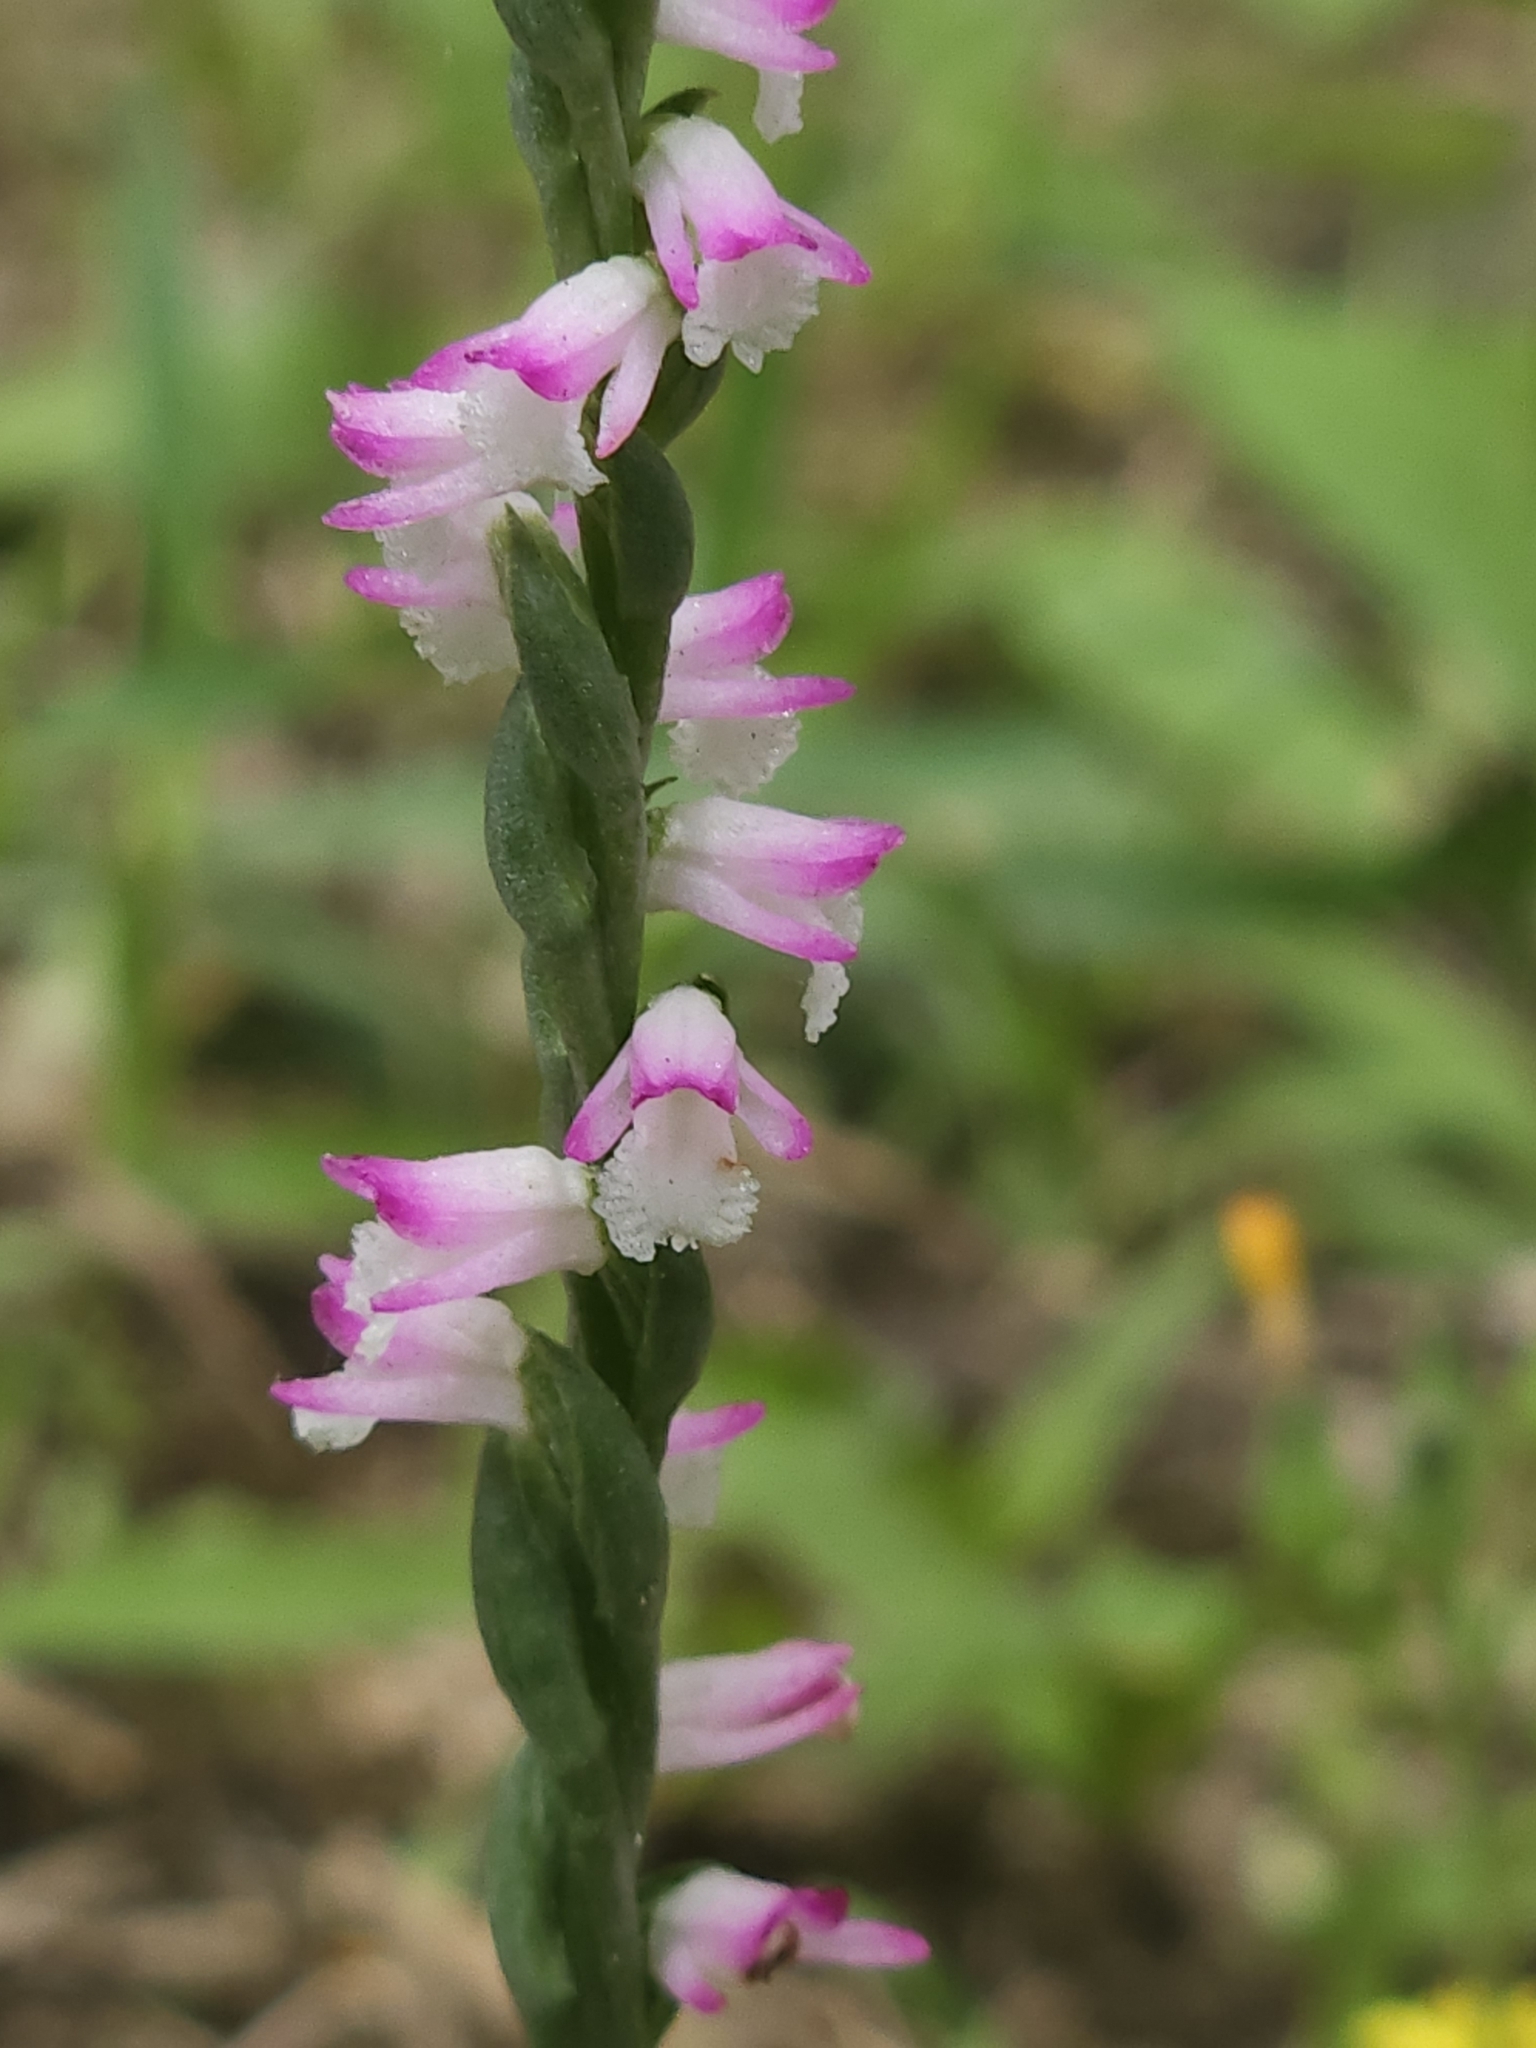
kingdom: Plantae
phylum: Tracheophyta
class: Liliopsida
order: Asparagales
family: Orchidaceae
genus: Spiranthes
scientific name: Spiranthes sinensis
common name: Chinese spiranthes
